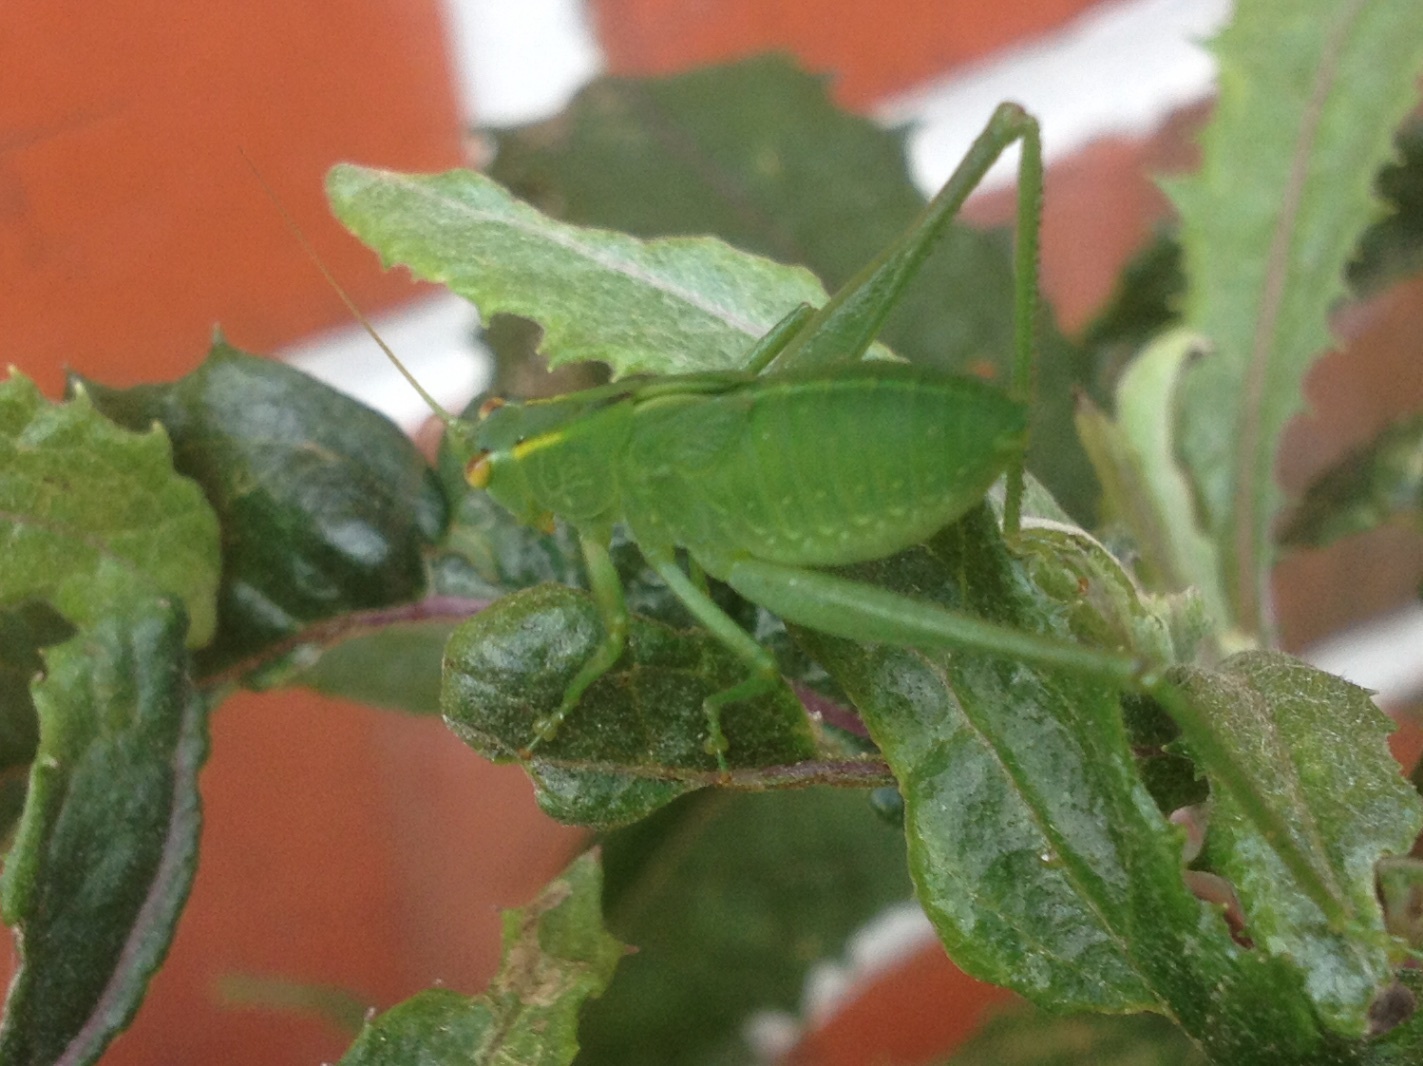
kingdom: Animalia
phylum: Arthropoda
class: Insecta
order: Orthoptera
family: Tettigoniidae
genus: Caedicia
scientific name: Caedicia simplex
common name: Common garden katydid
